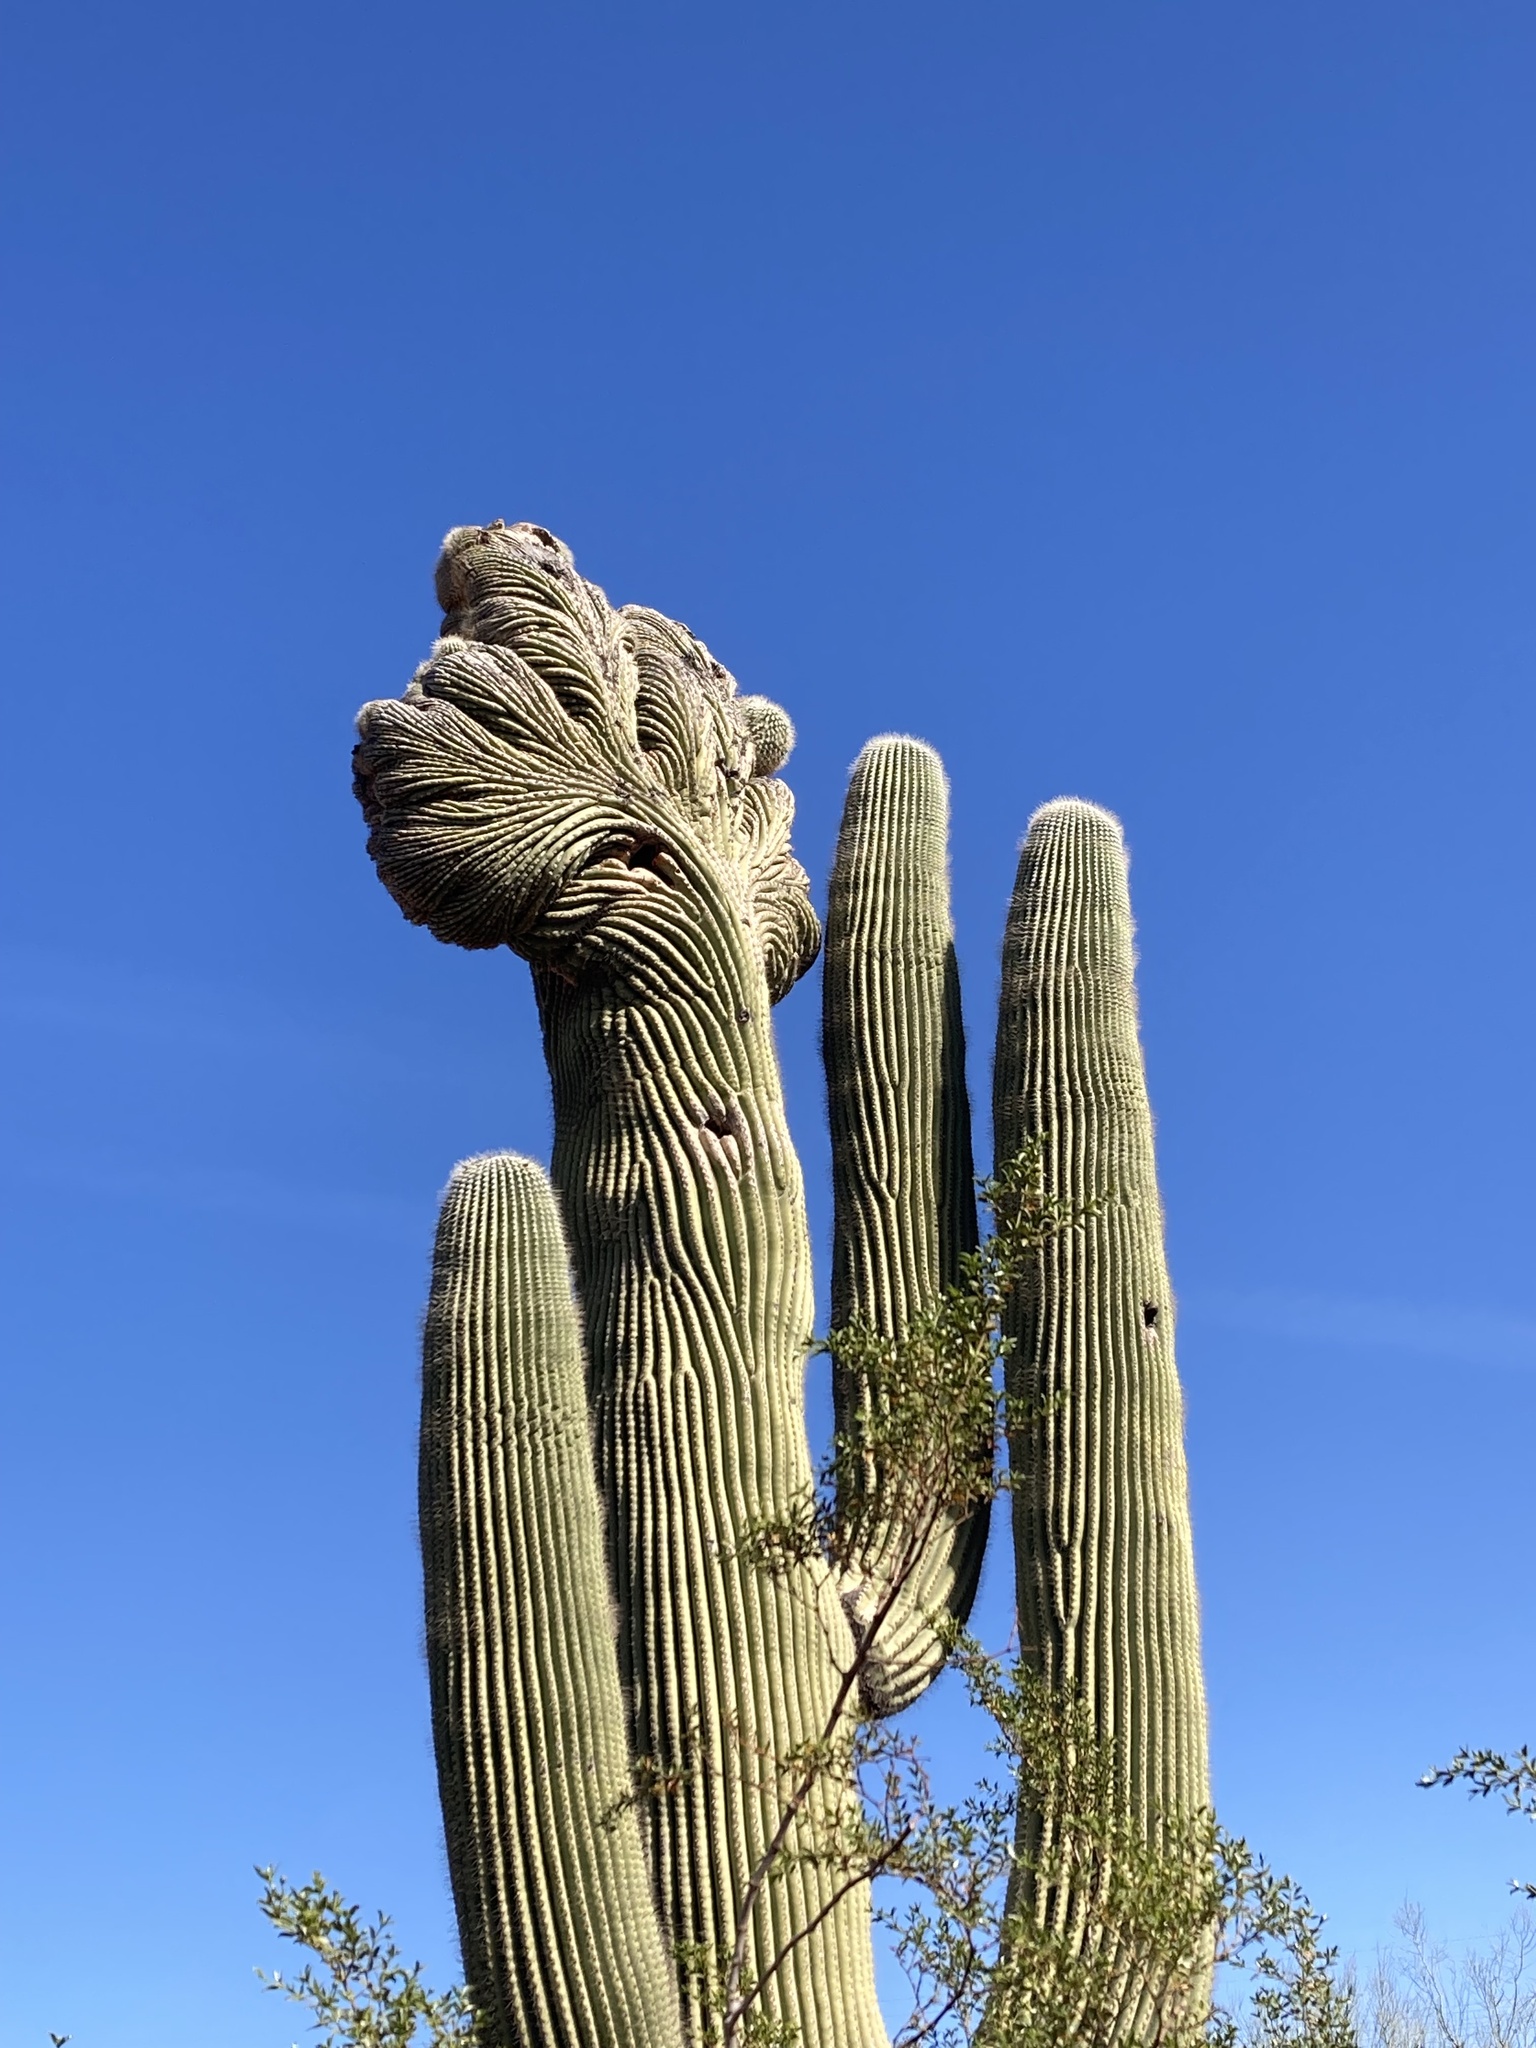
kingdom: Plantae
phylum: Tracheophyta
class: Magnoliopsida
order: Caryophyllales
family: Cactaceae
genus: Carnegiea
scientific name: Carnegiea gigantea
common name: Saguaro
